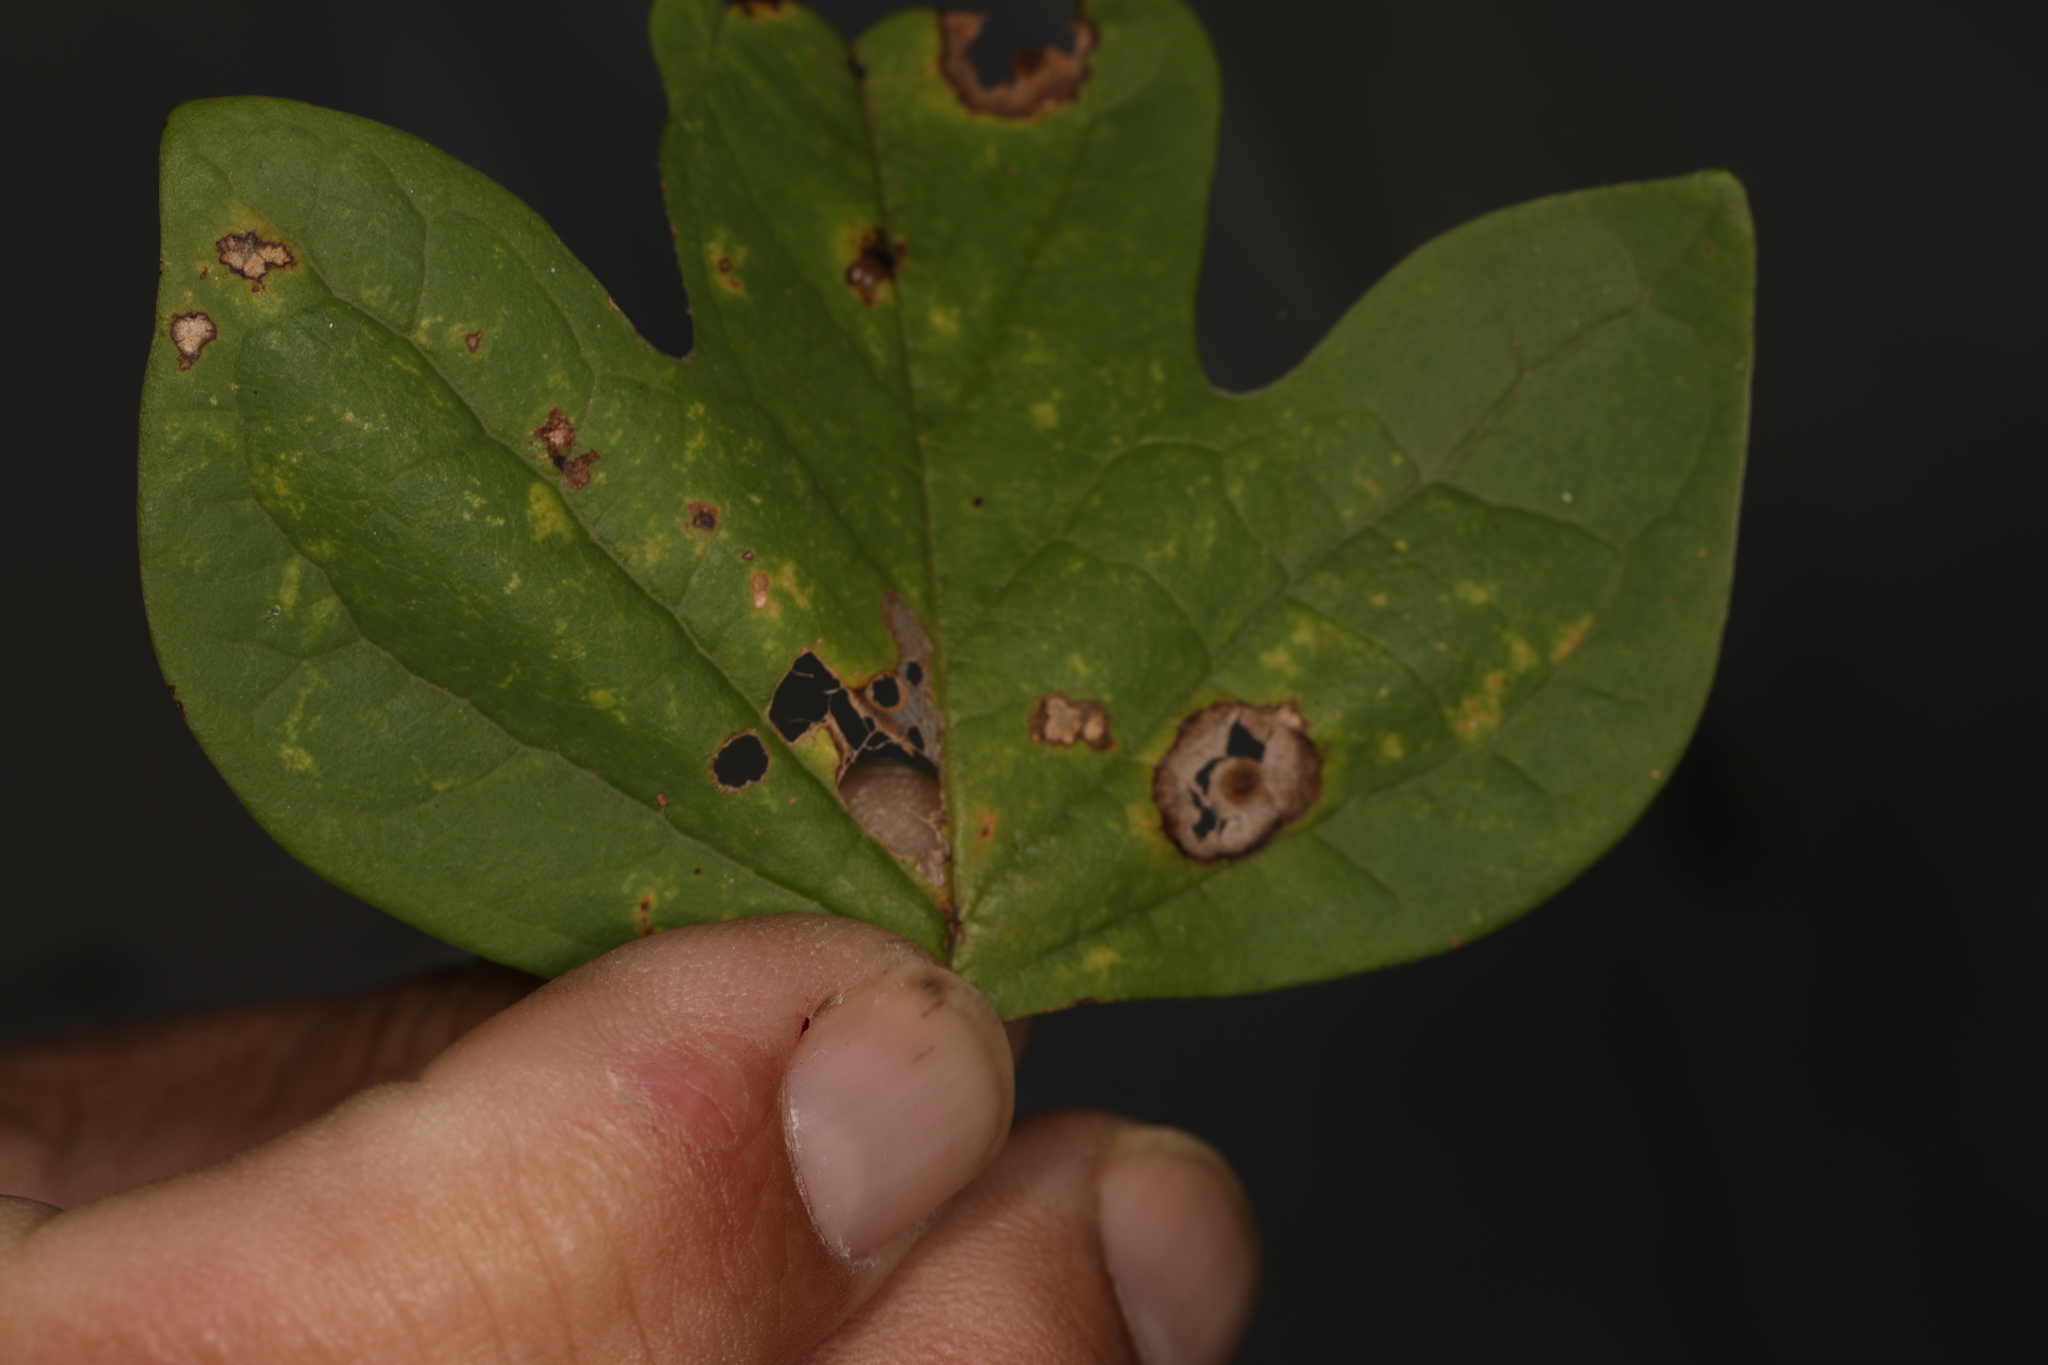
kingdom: Animalia
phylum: Arthropoda
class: Insecta
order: Diptera
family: Cecidomyiidae
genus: Resseliella
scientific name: Resseliella liriodendri
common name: Tulip tree leaf spot gall midge
